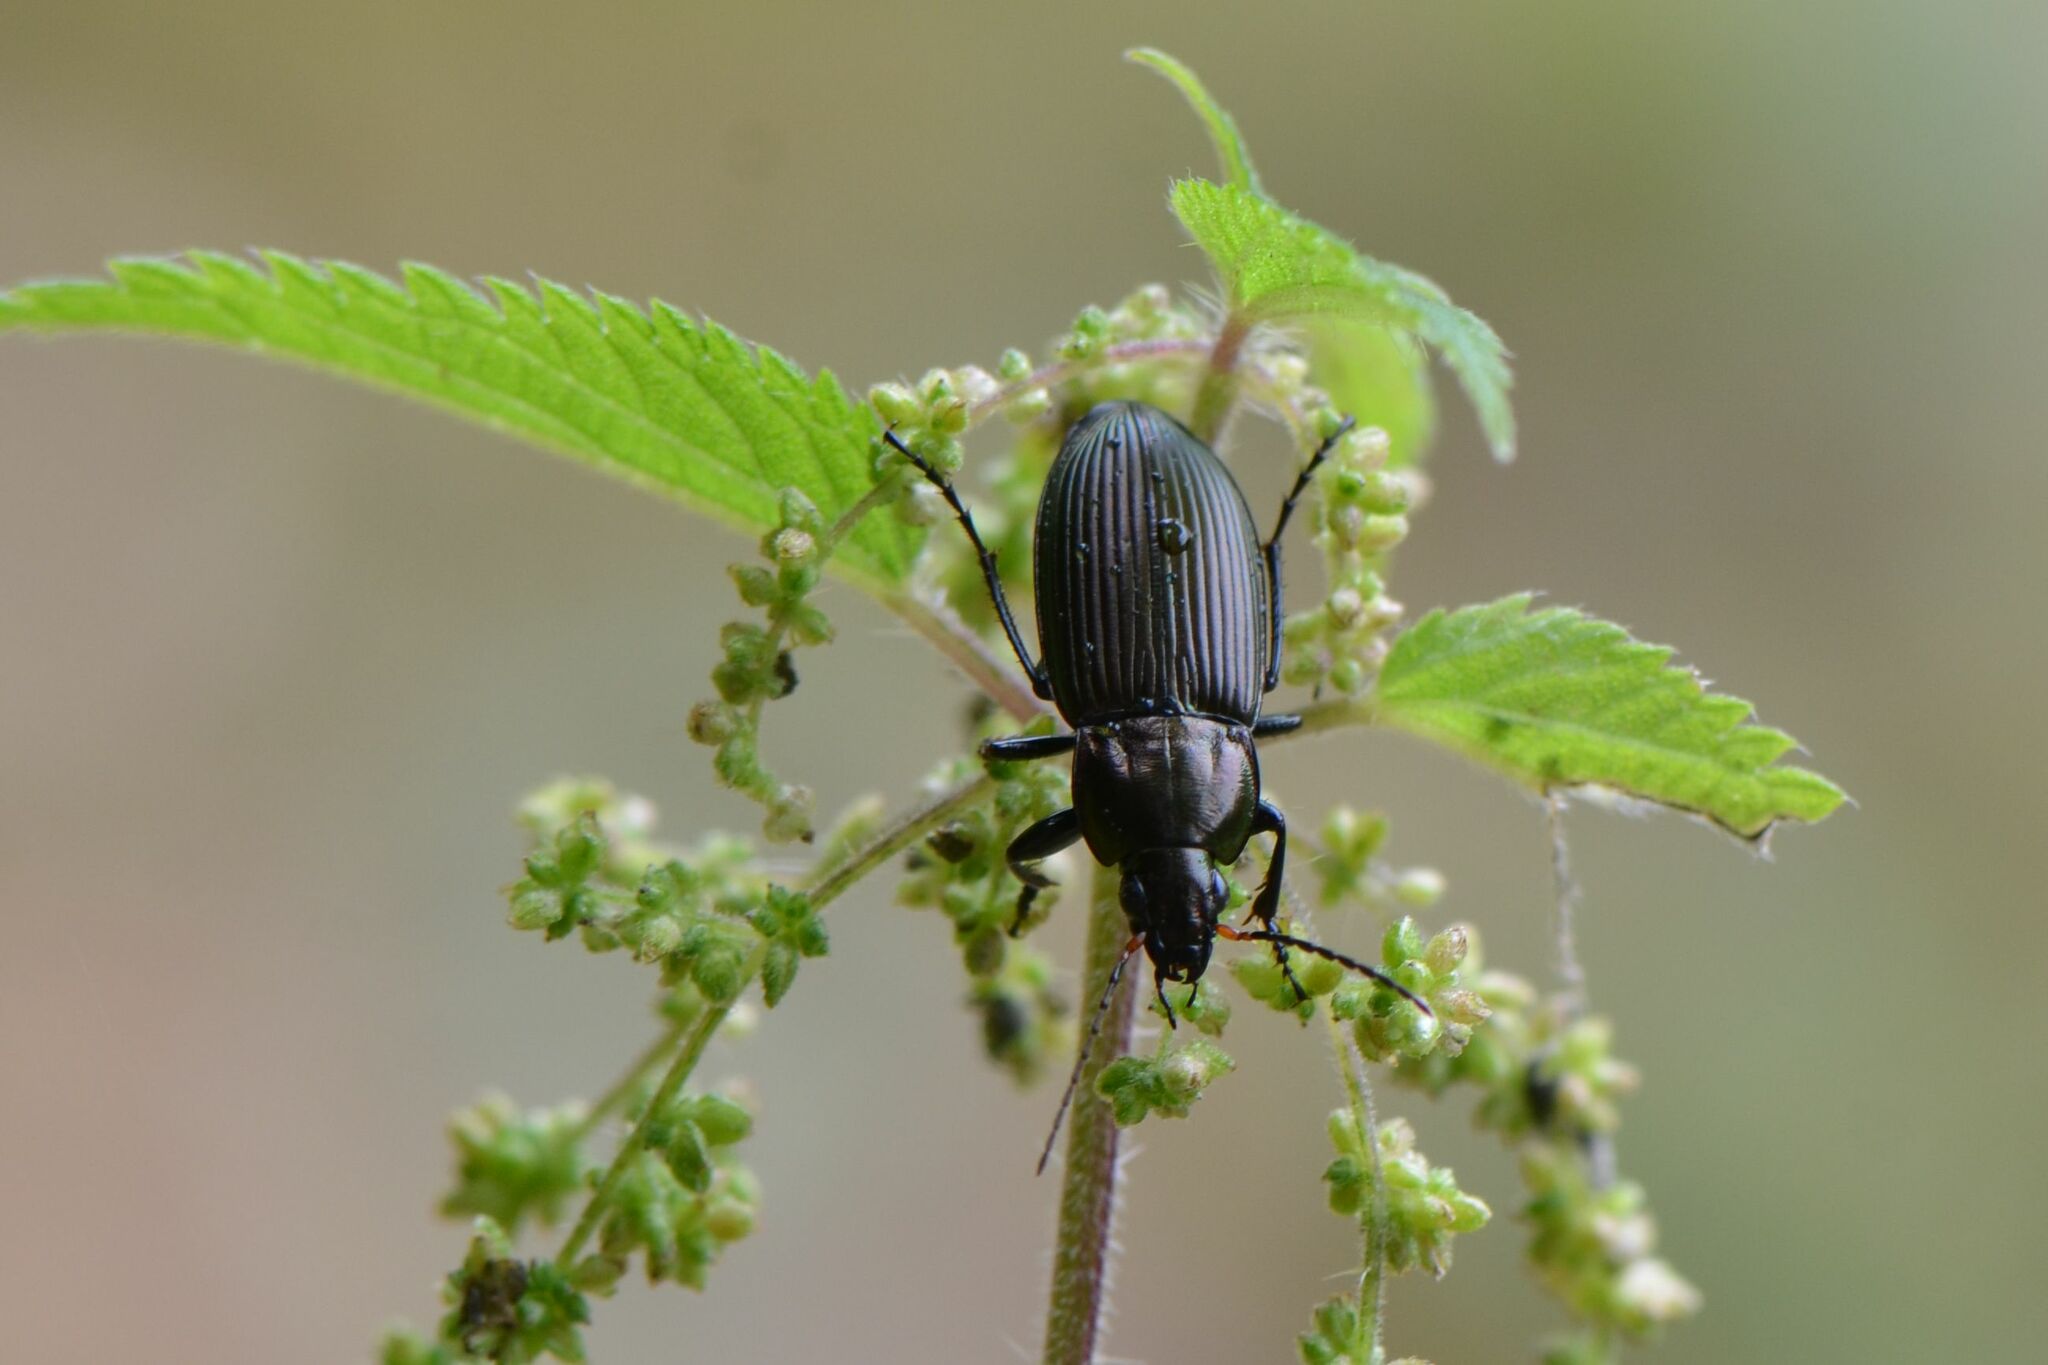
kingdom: Animalia
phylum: Arthropoda
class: Insecta
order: Coleoptera
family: Carabidae
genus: Poecilus
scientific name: Poecilus cupreus
